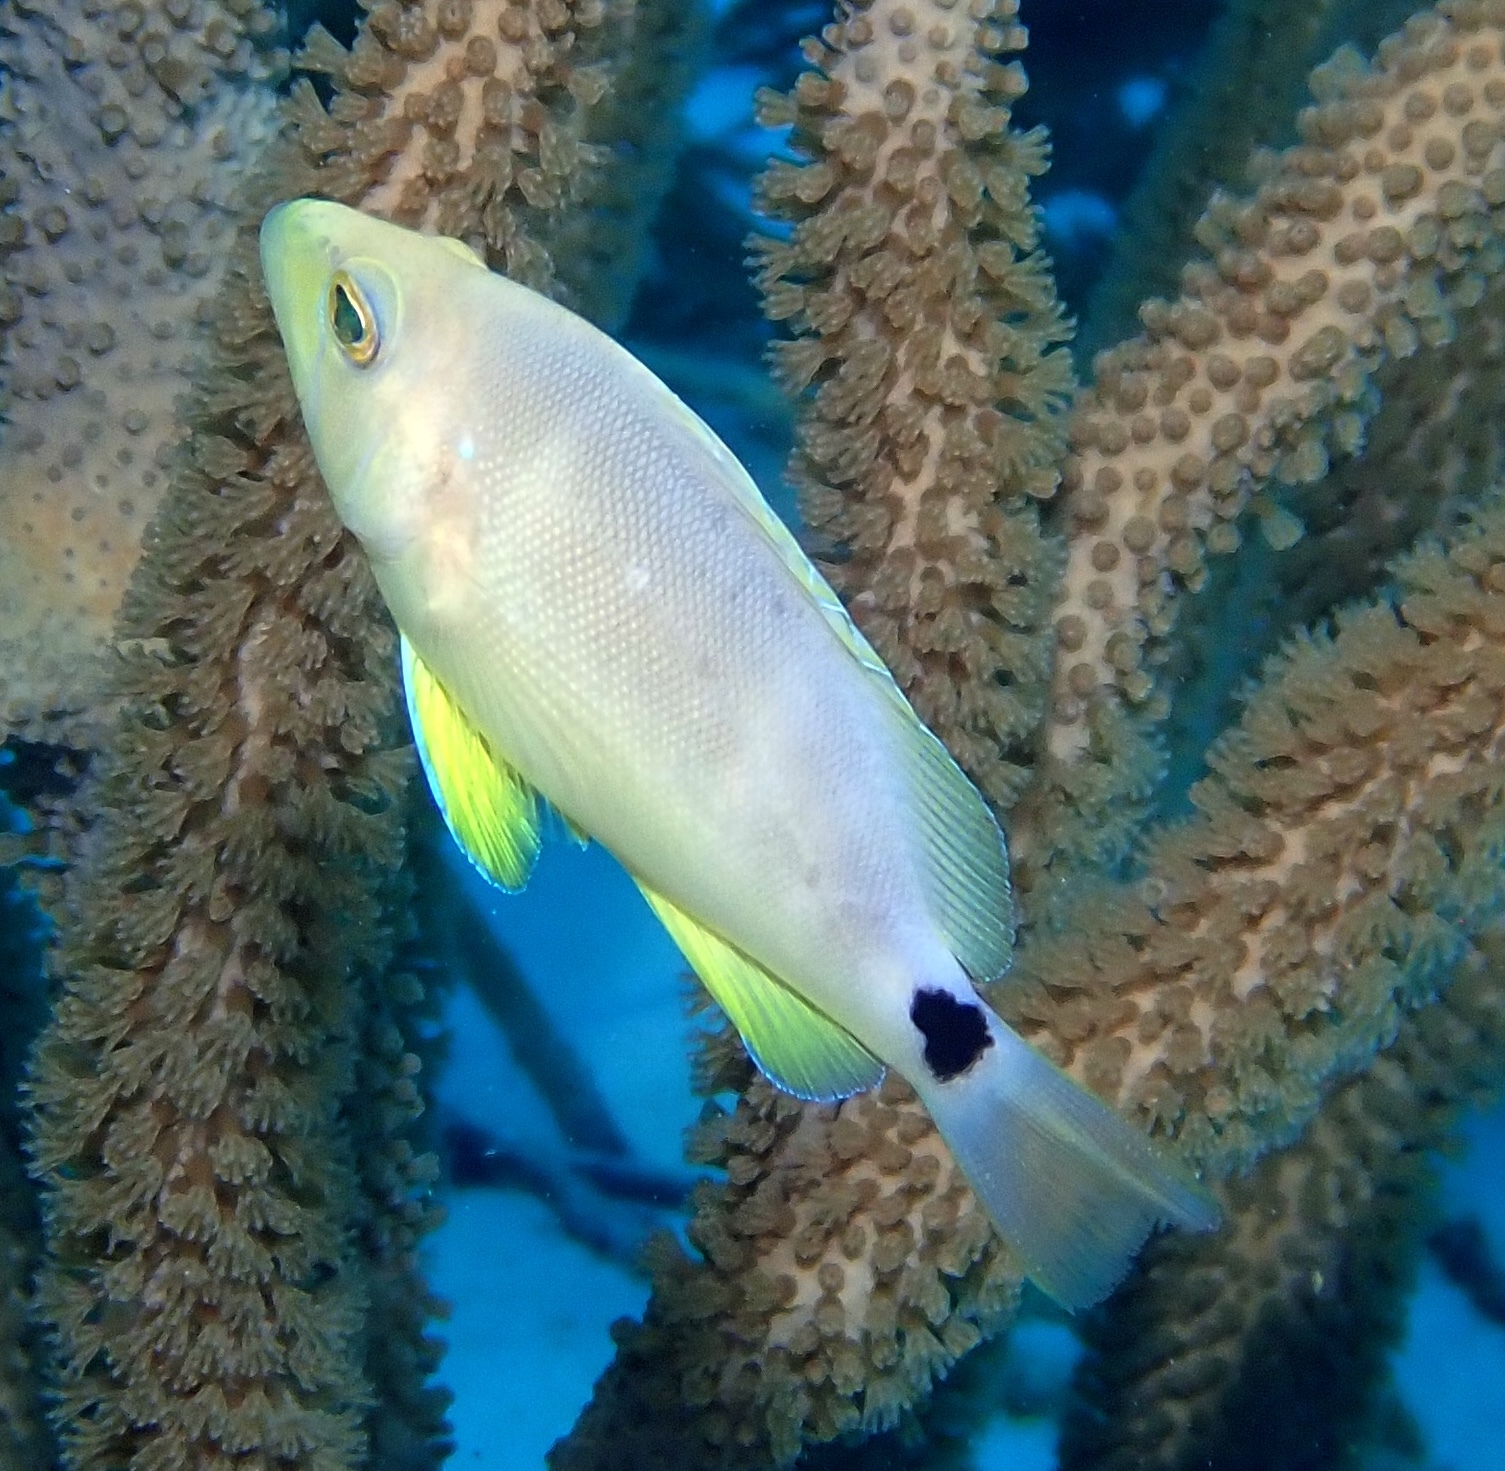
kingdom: Animalia
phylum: Chordata
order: Perciformes
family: Serranidae
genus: Hypoplectrus
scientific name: Hypoplectrus unicolor
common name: Butter hamlet
